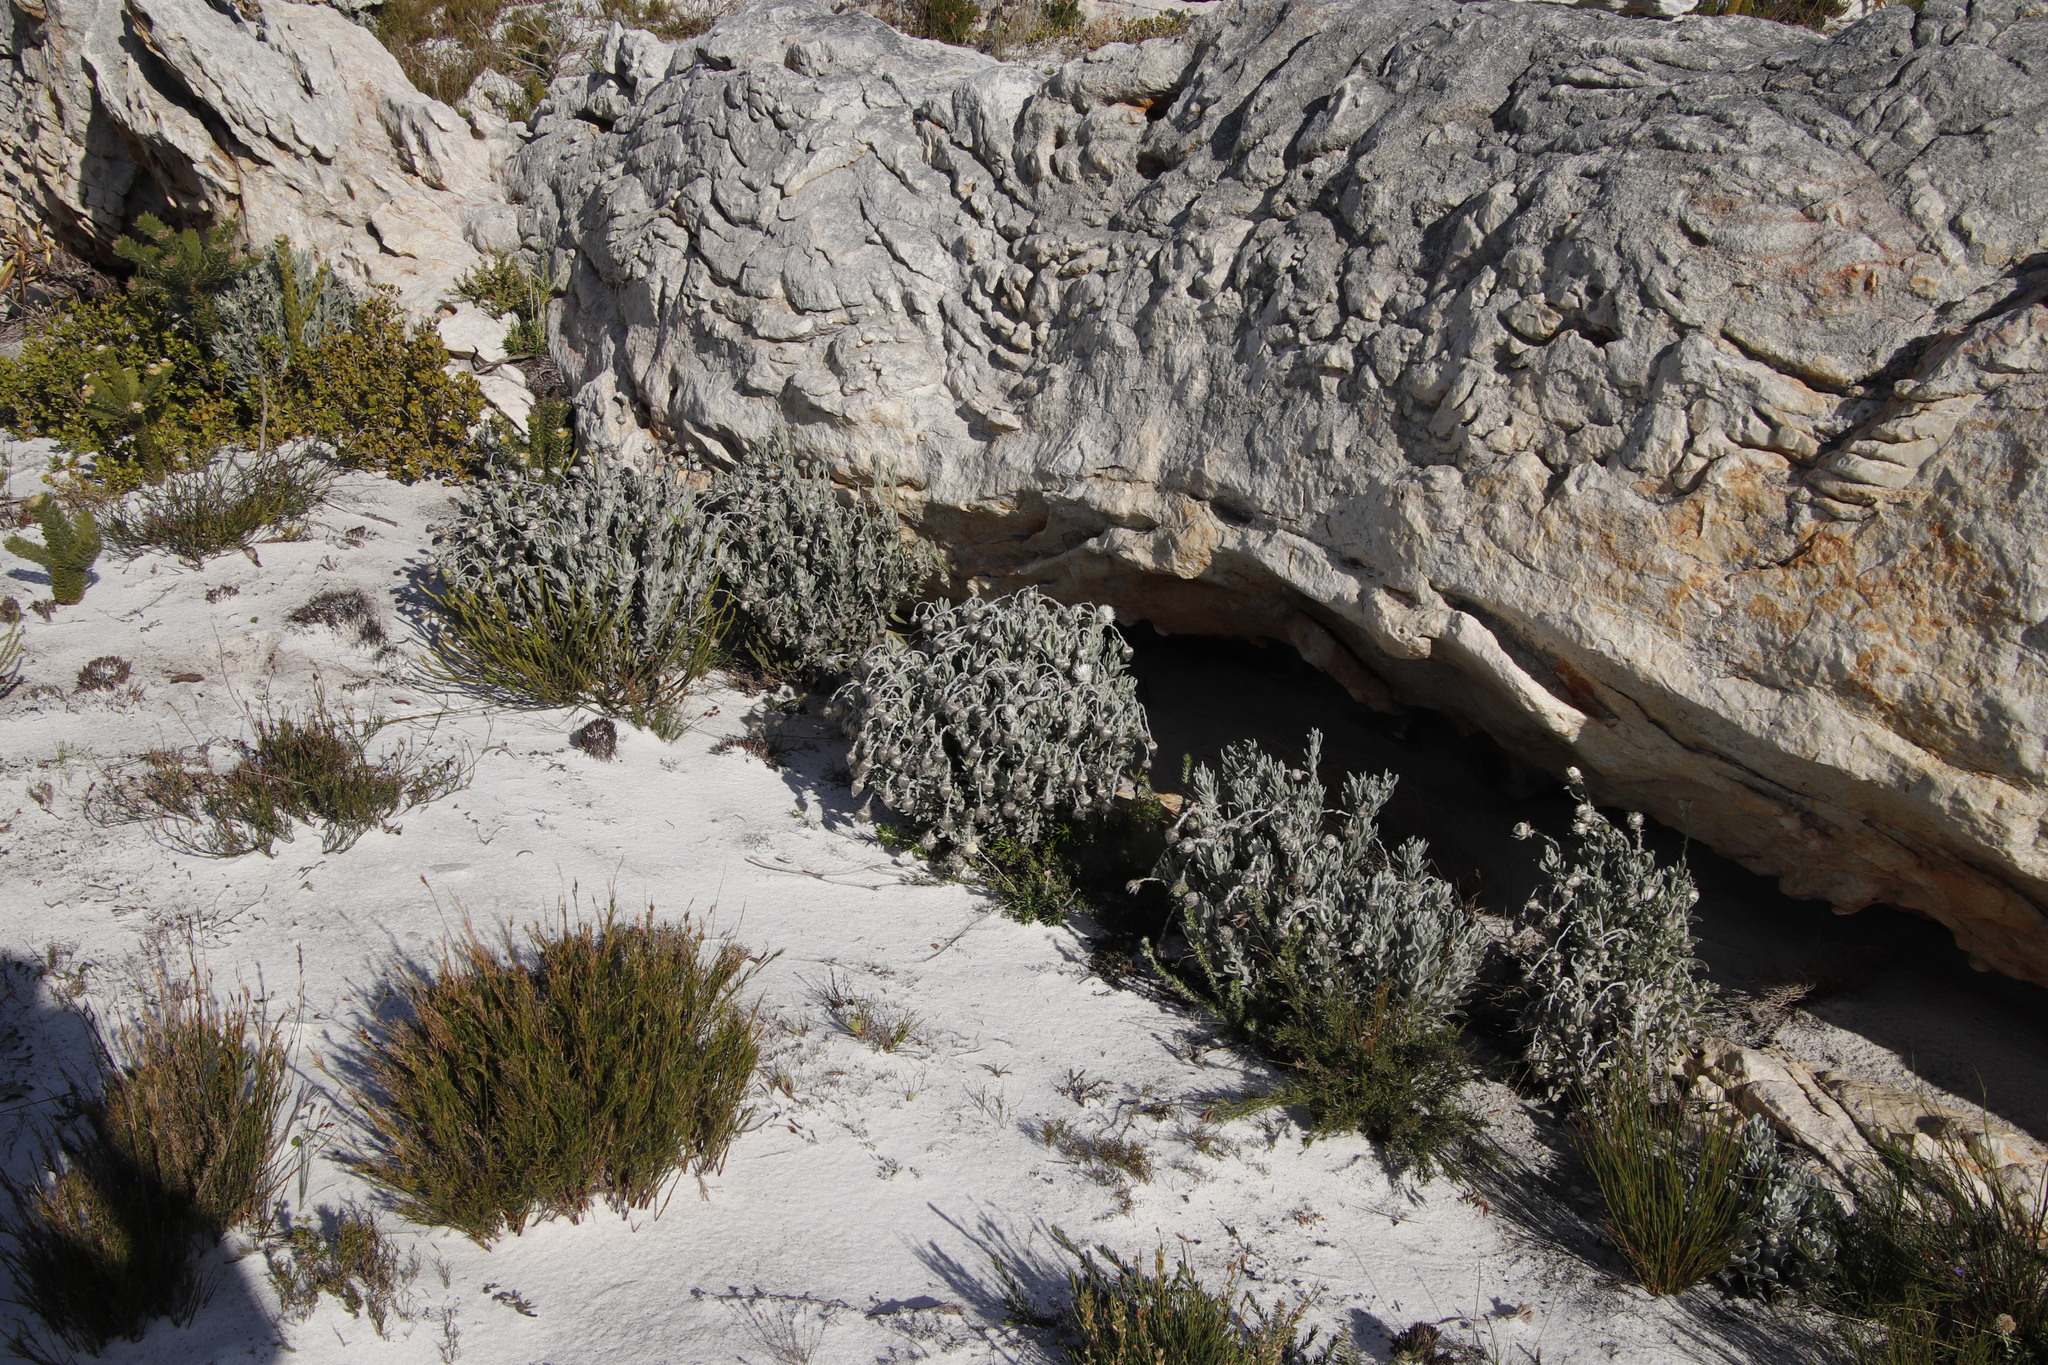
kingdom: Plantae
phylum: Tracheophyta
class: Magnoliopsida
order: Asterales
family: Asteraceae
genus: Syncarpha
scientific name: Syncarpha vestita
